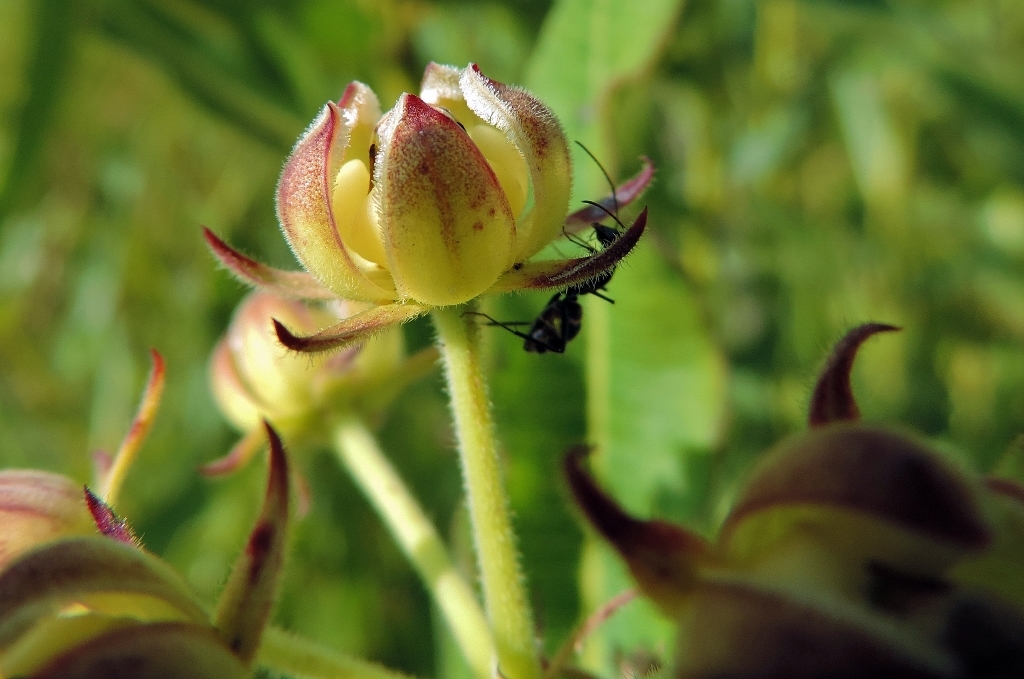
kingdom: Plantae
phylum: Tracheophyta
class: Magnoliopsida
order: Gentianales
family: Apocynaceae
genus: Xysmalobium
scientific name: Xysmalobium undulatum
